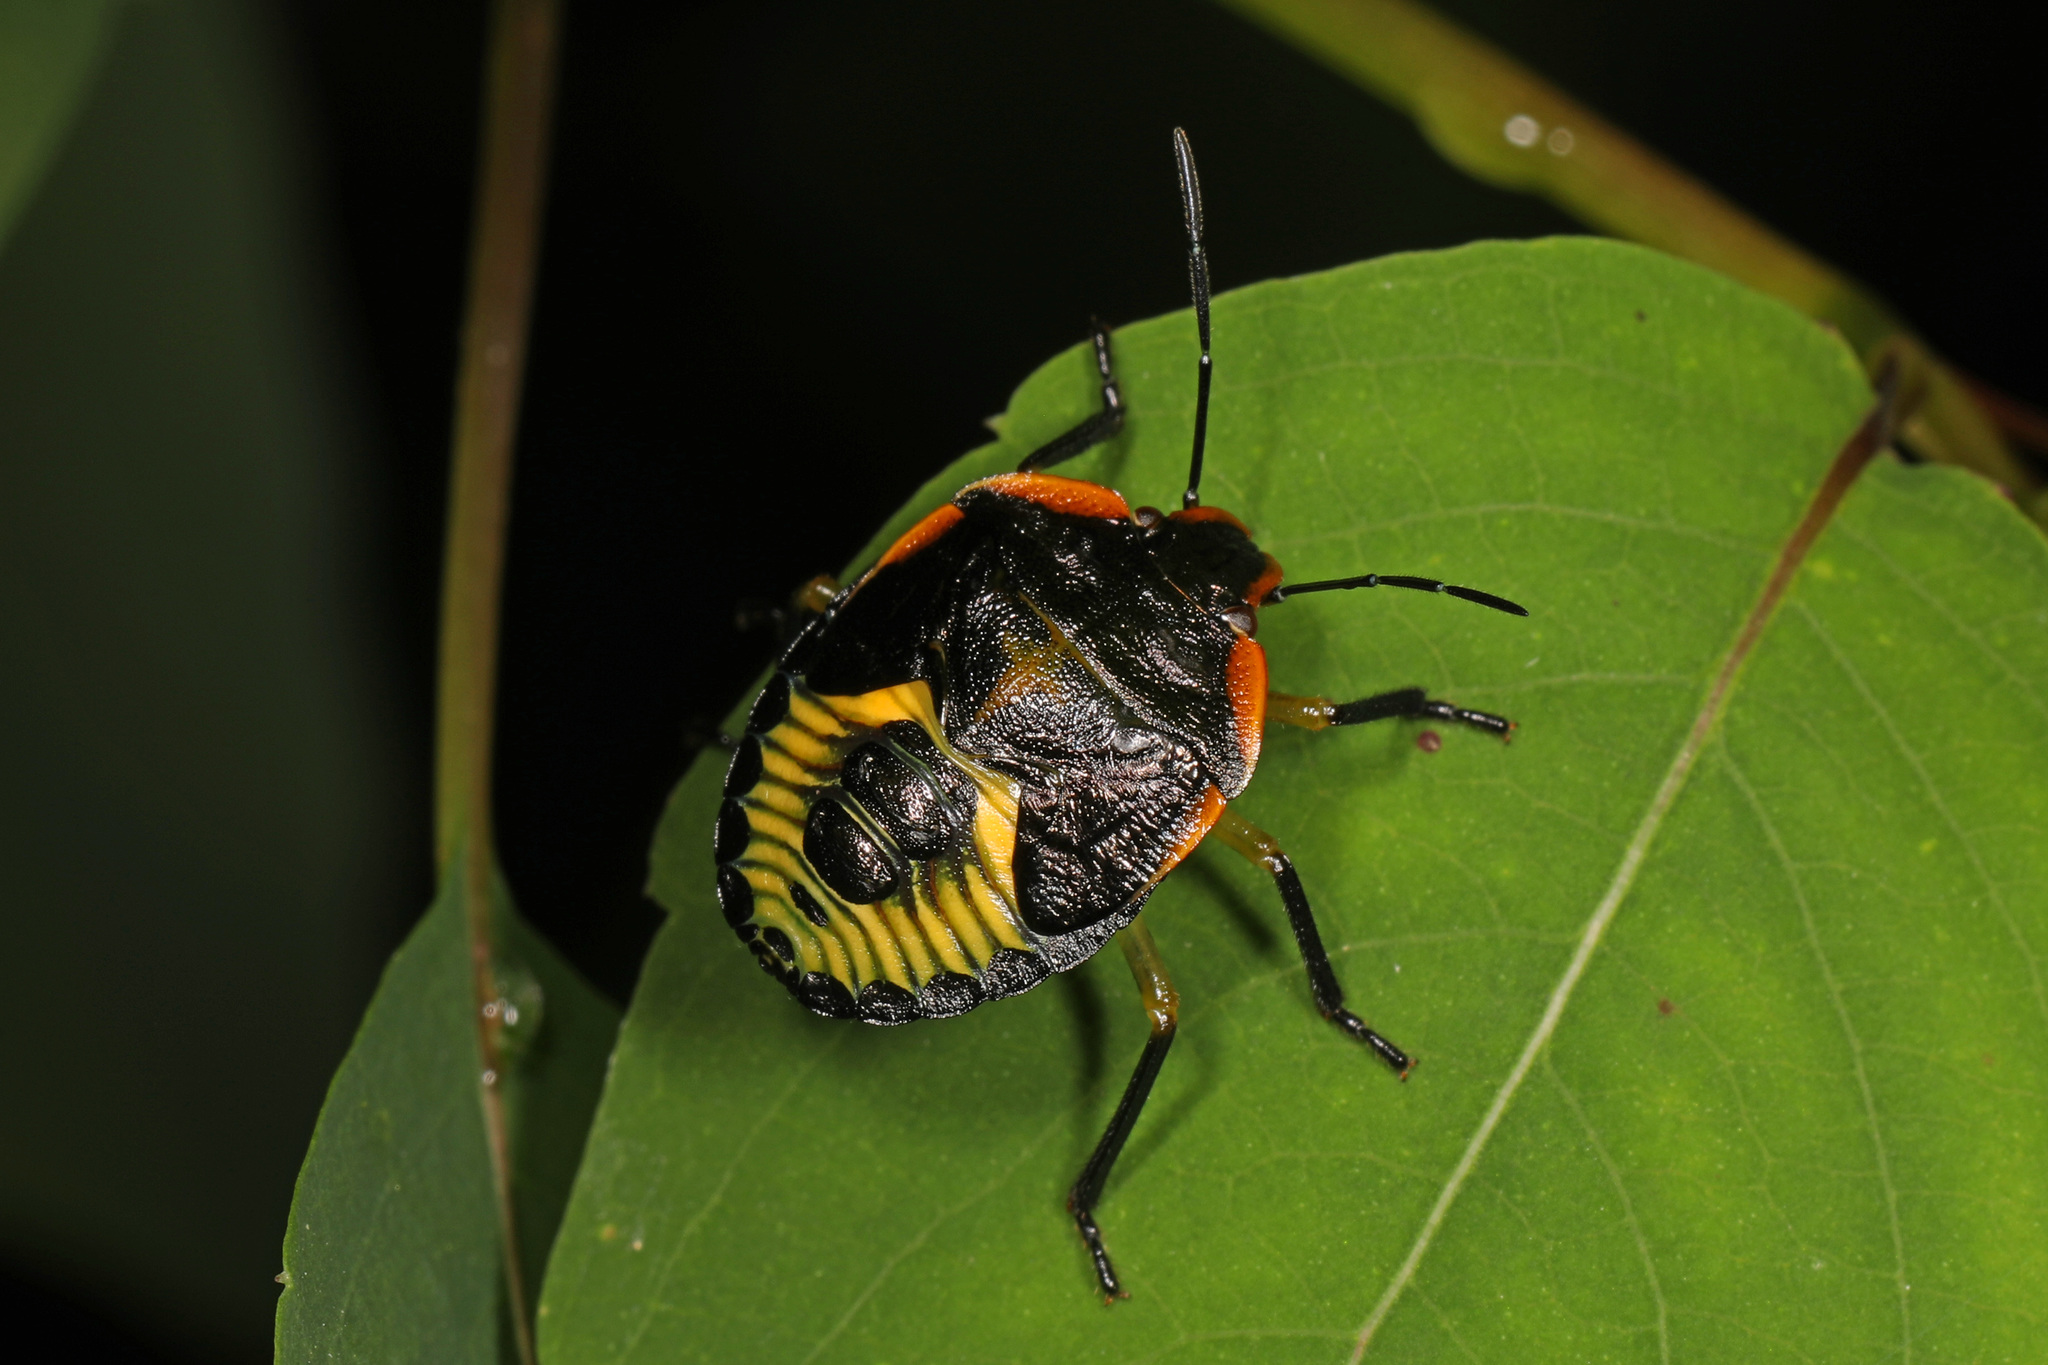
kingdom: Animalia
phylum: Arthropoda
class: Insecta
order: Hemiptera
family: Pentatomidae
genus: Chinavia
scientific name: Chinavia hilaris
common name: Green stink bug
